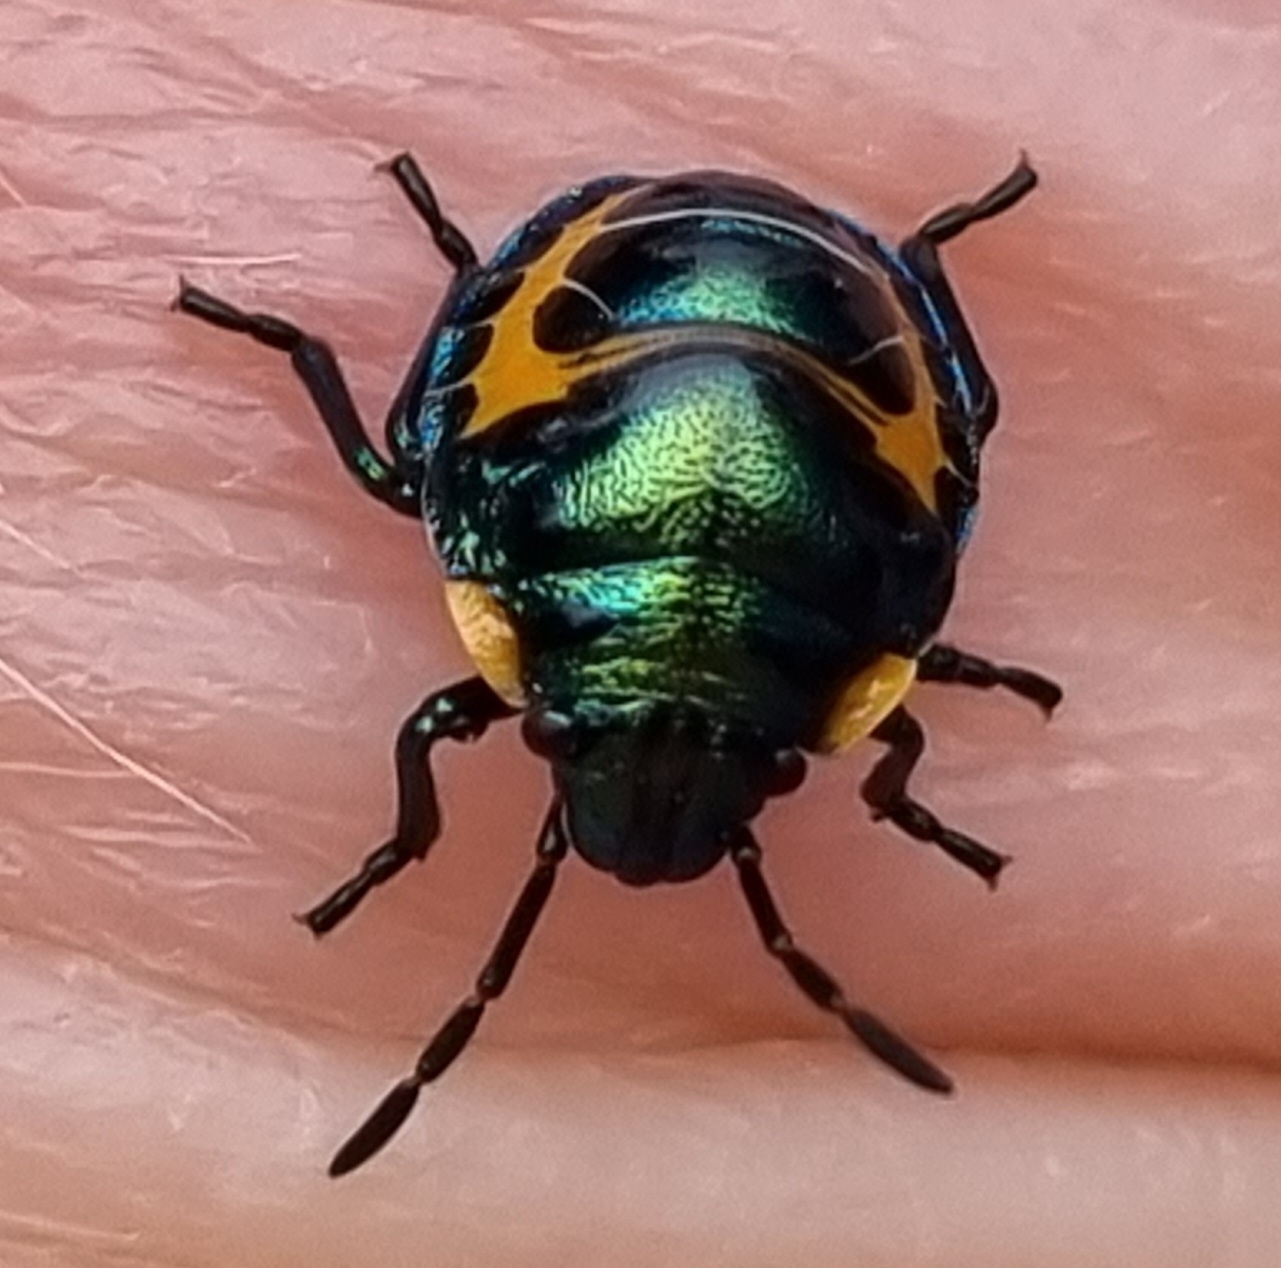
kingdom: Animalia
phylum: Arthropoda
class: Insecta
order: Hemiptera
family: Scutelleridae
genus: Scutiphora
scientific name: Scutiphora pedicellata
